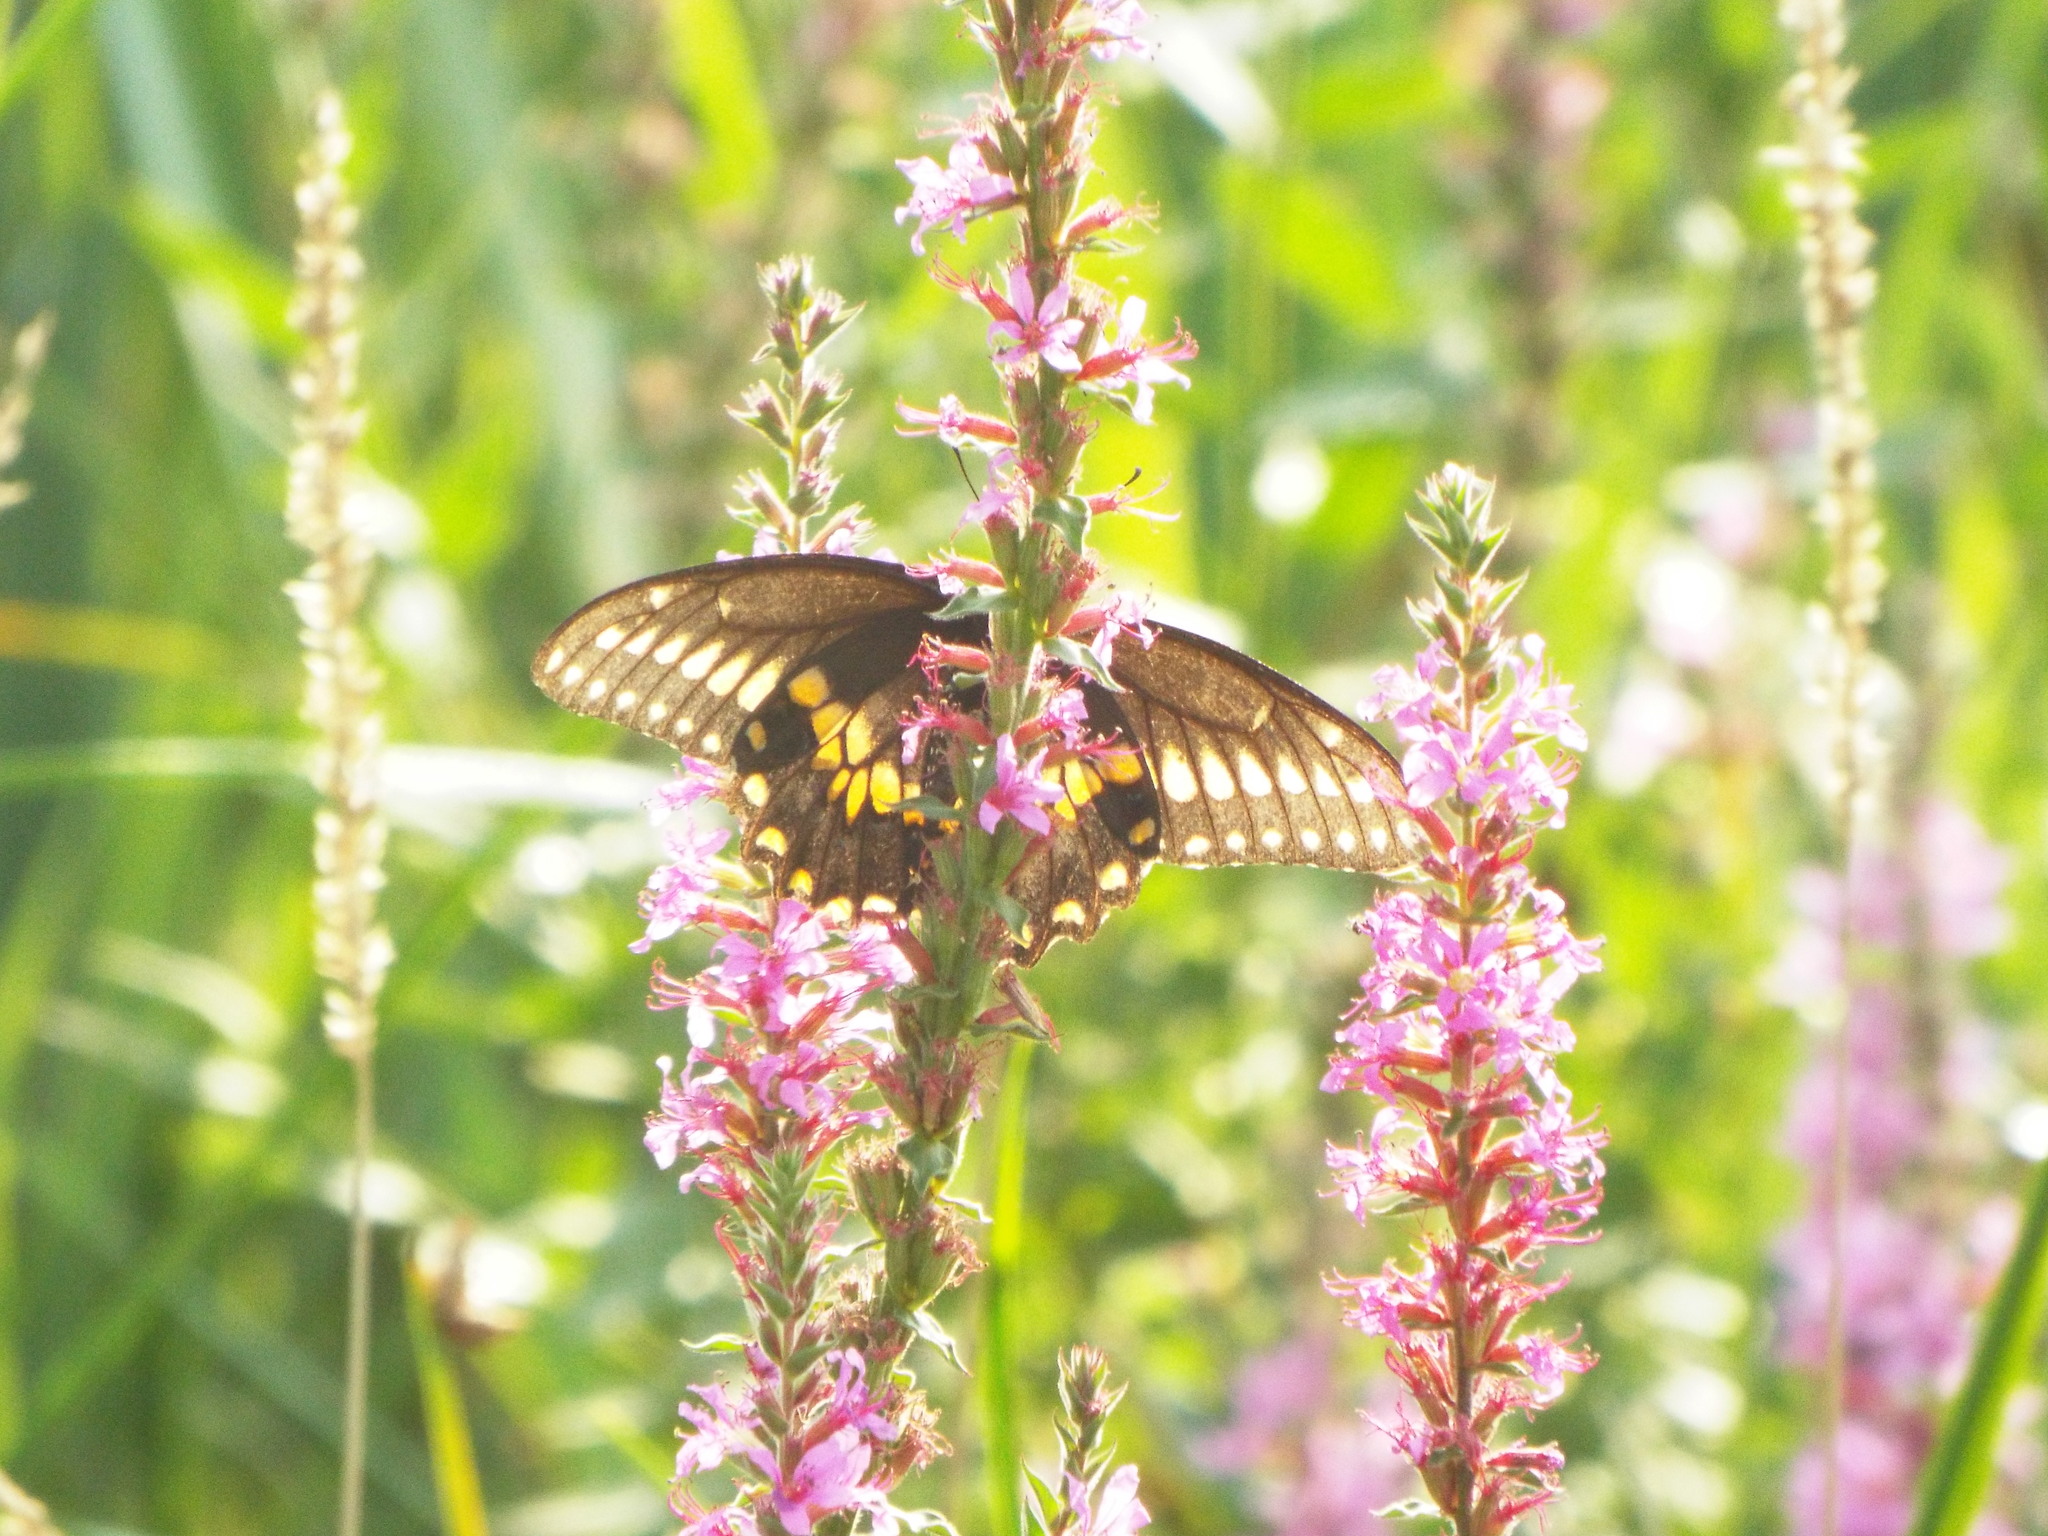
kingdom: Animalia
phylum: Arthropoda
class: Insecta
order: Lepidoptera
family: Papilionidae
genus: Papilio
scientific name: Papilio polyxenes
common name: Black swallowtail
